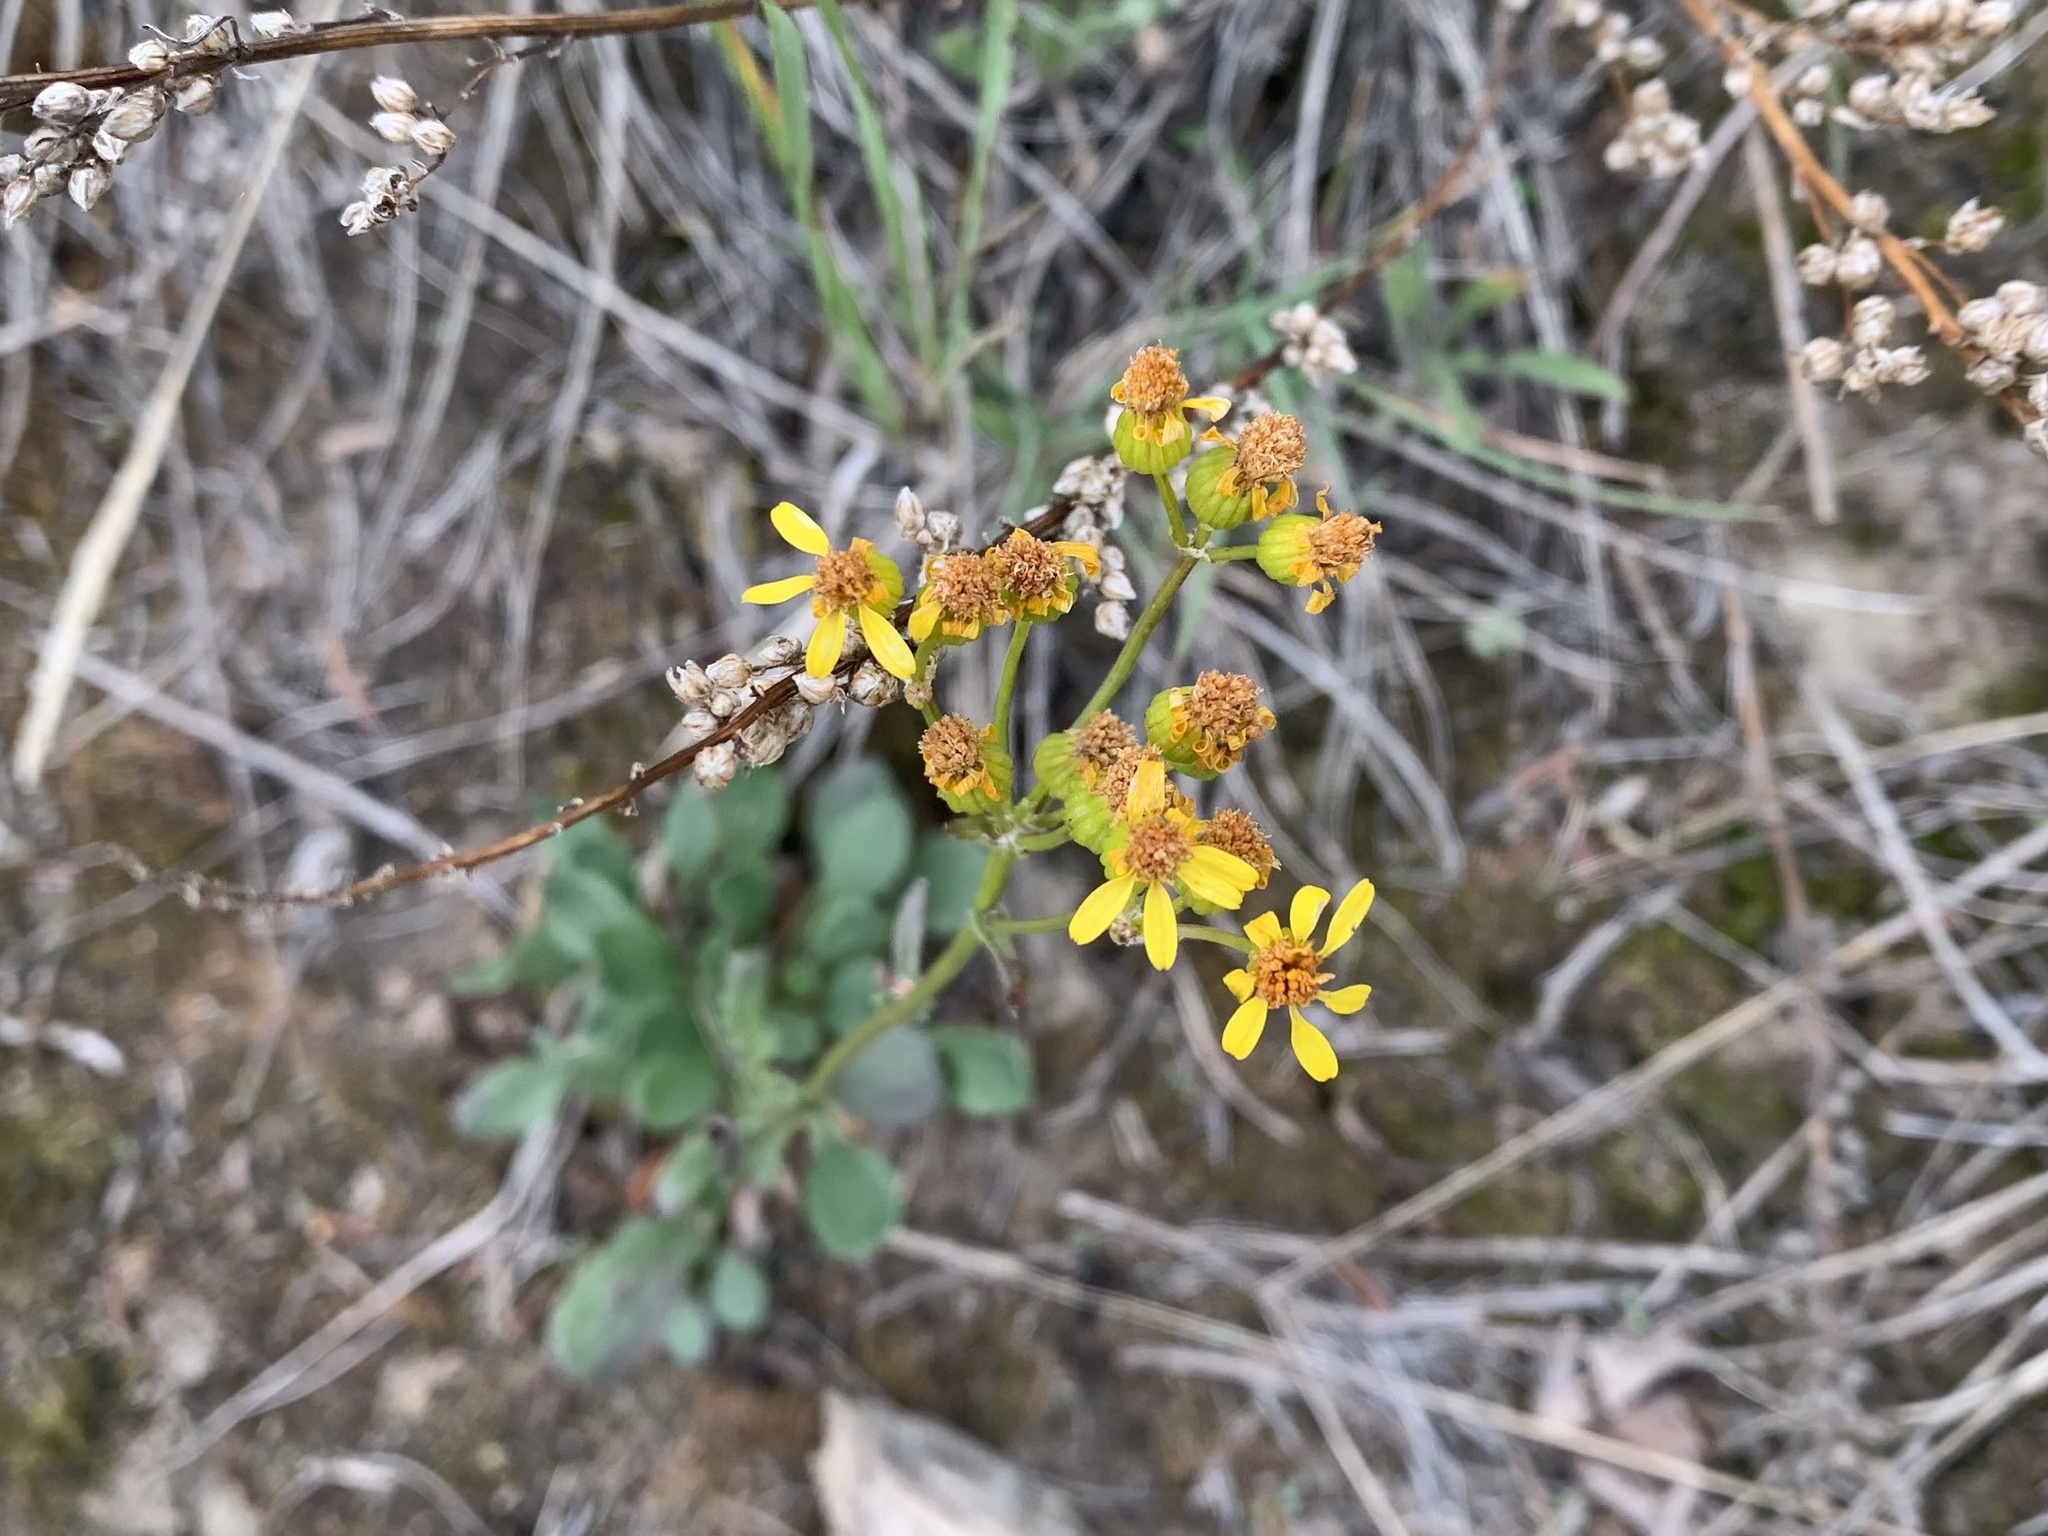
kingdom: Plantae
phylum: Tracheophyta
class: Magnoliopsida
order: Asterales
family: Asteraceae
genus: Packera
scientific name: Packera streptanthifolia
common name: Rocky mountain butterweed
